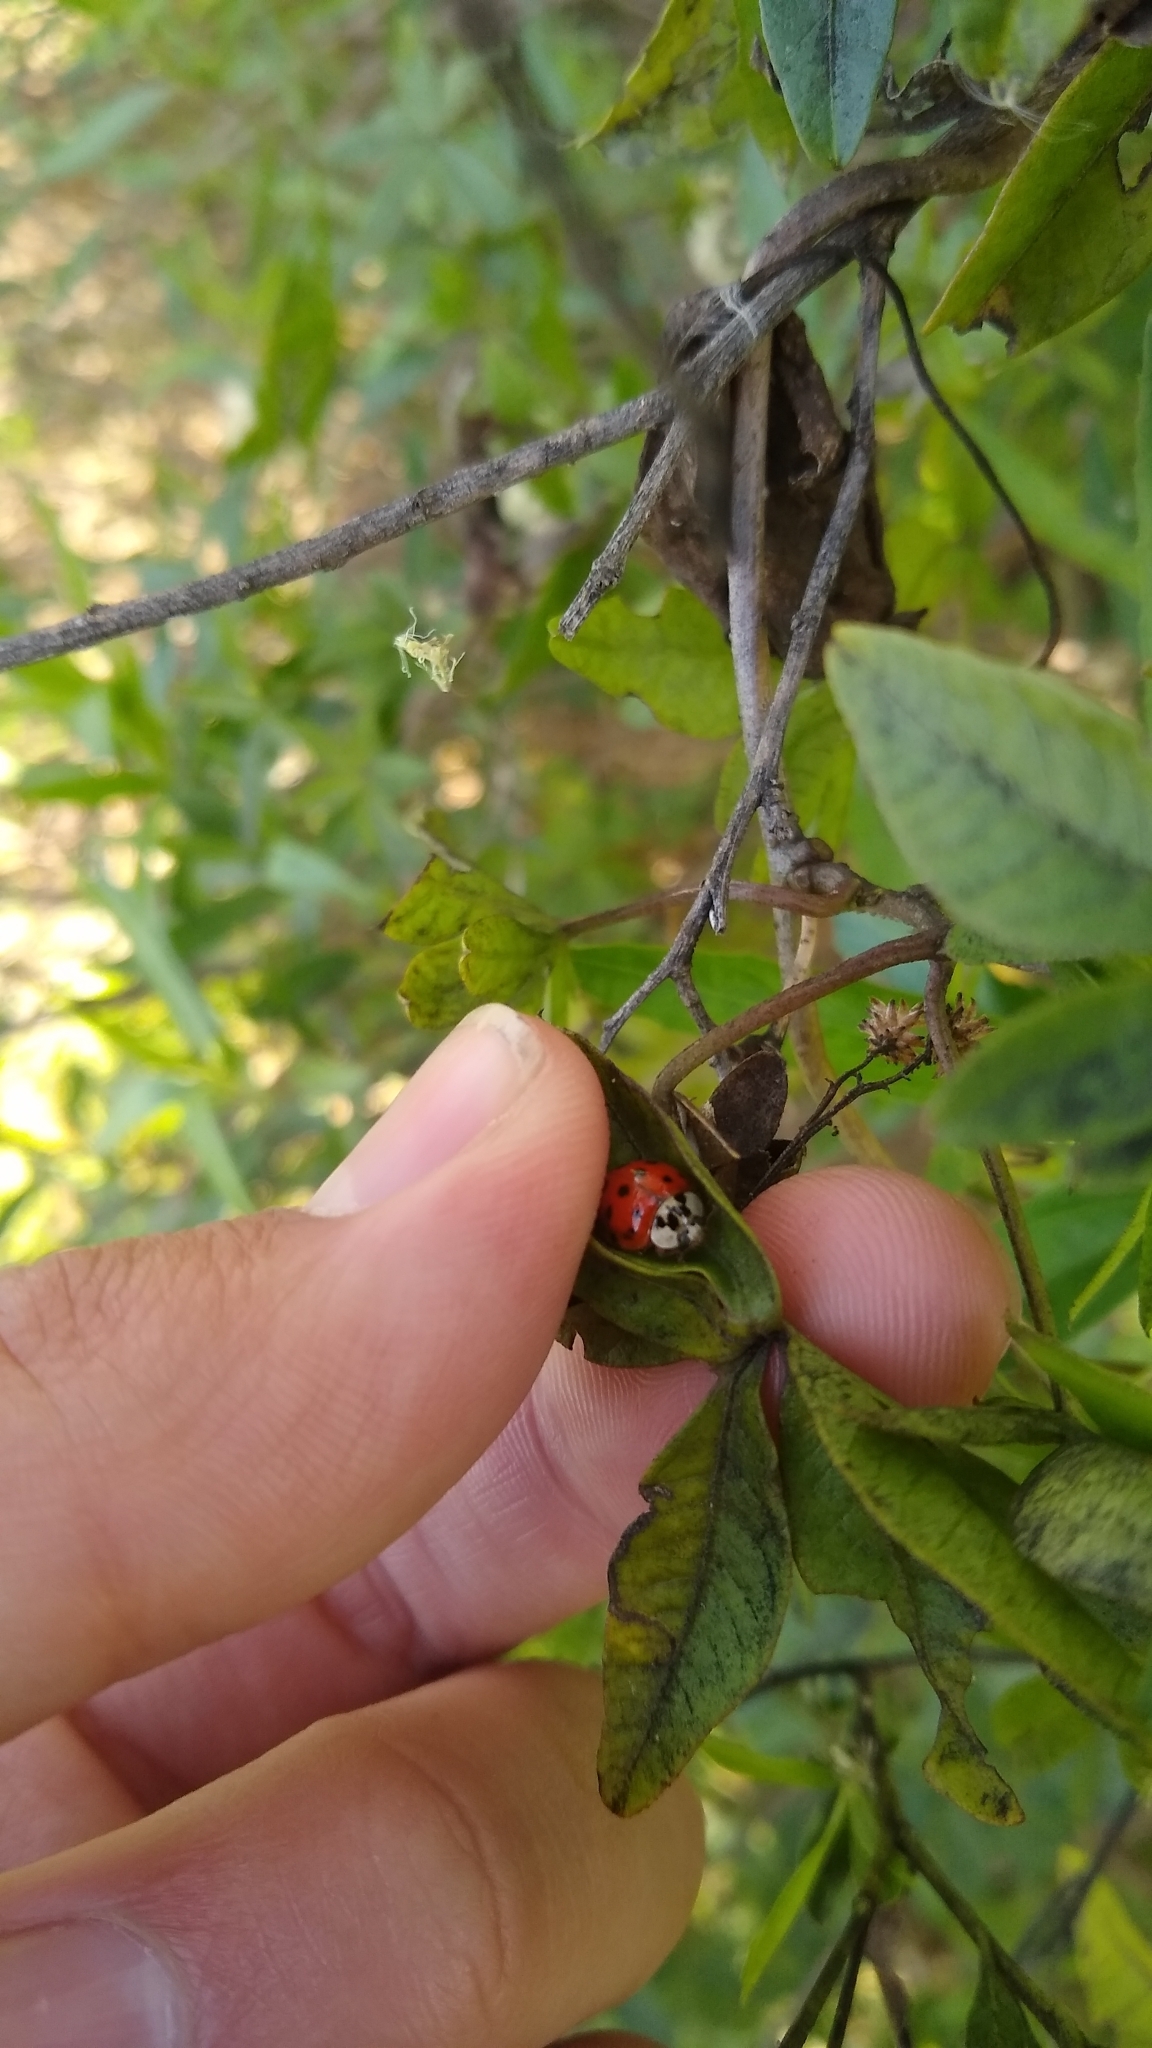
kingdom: Animalia
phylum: Arthropoda
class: Insecta
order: Coleoptera
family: Coccinellidae
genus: Harmonia
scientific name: Harmonia axyridis
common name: Harlequin ladybird
